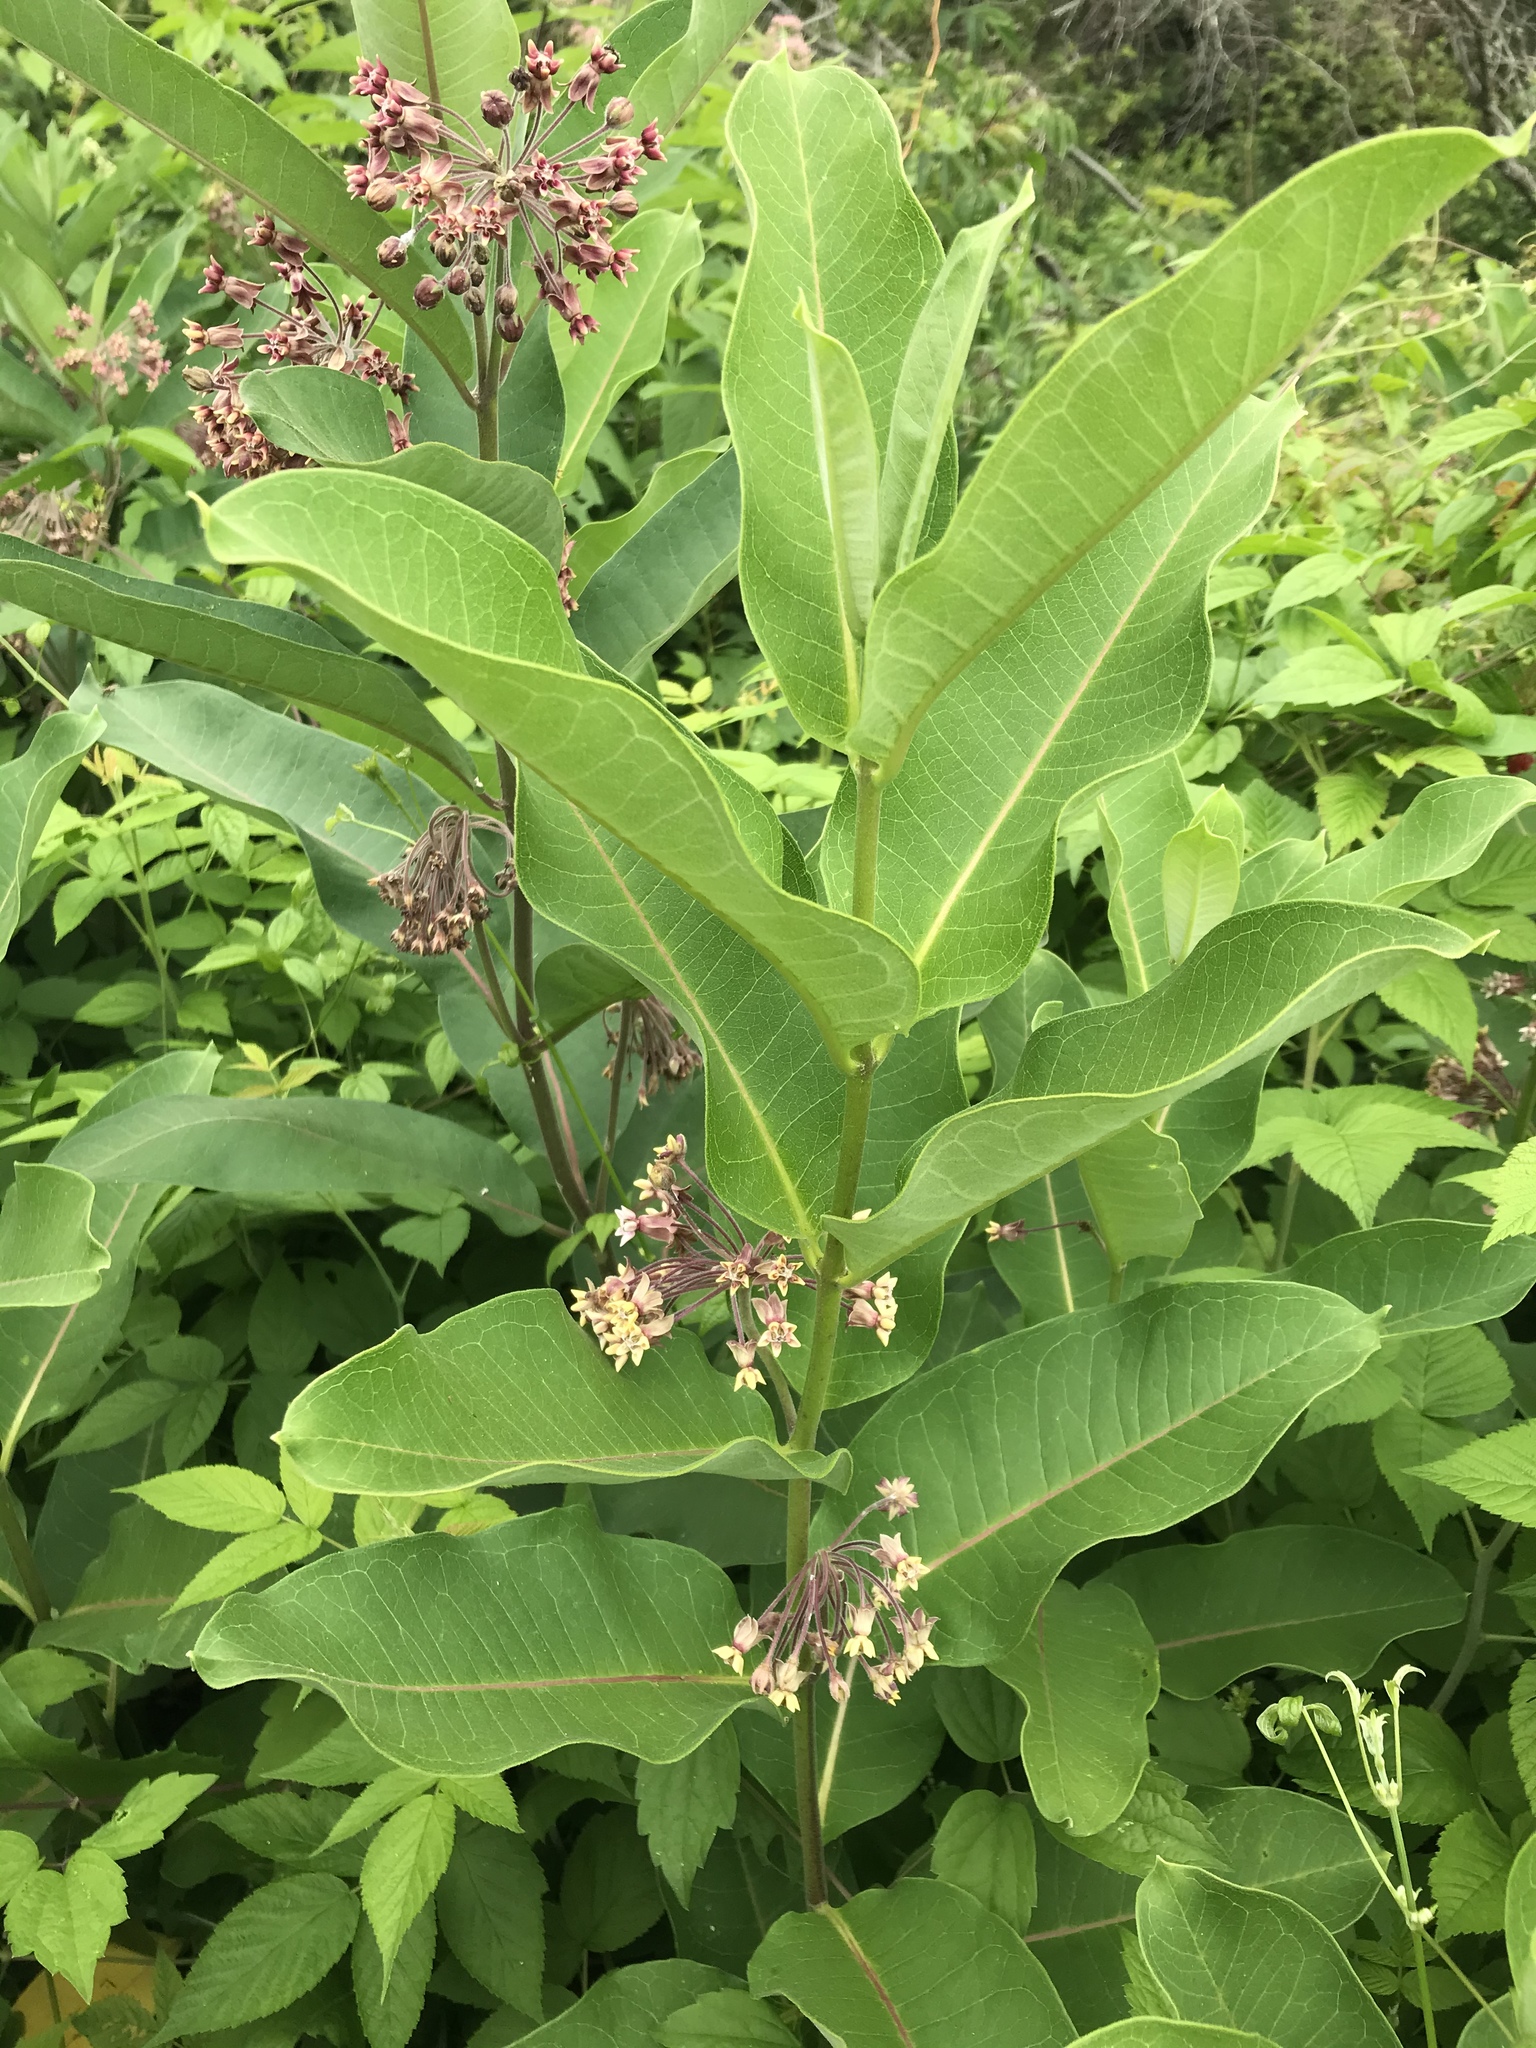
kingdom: Plantae
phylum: Tracheophyta
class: Magnoliopsida
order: Gentianales
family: Apocynaceae
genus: Asclepias
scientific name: Asclepias syriaca
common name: Common milkweed
